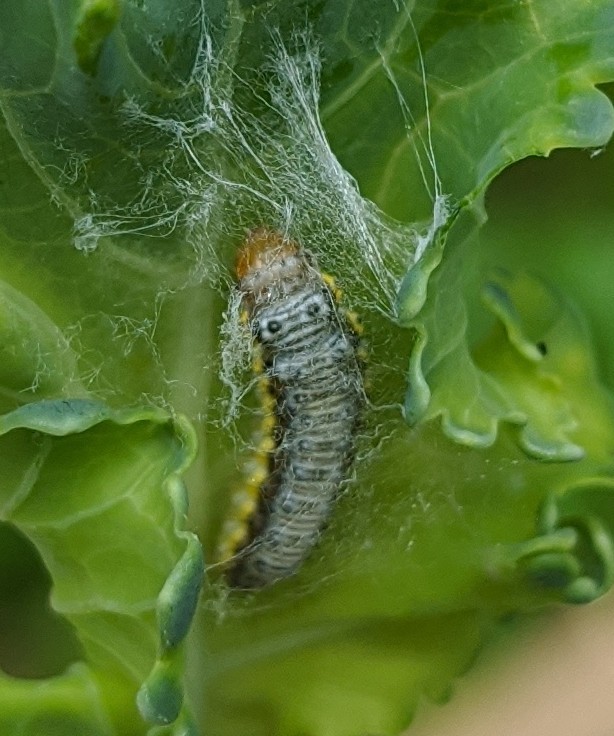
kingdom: Animalia
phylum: Arthropoda
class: Insecta
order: Lepidoptera
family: Crambidae
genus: Evergestis
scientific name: Evergestis rimosalis
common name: Cross-striped cabbageworm moth
